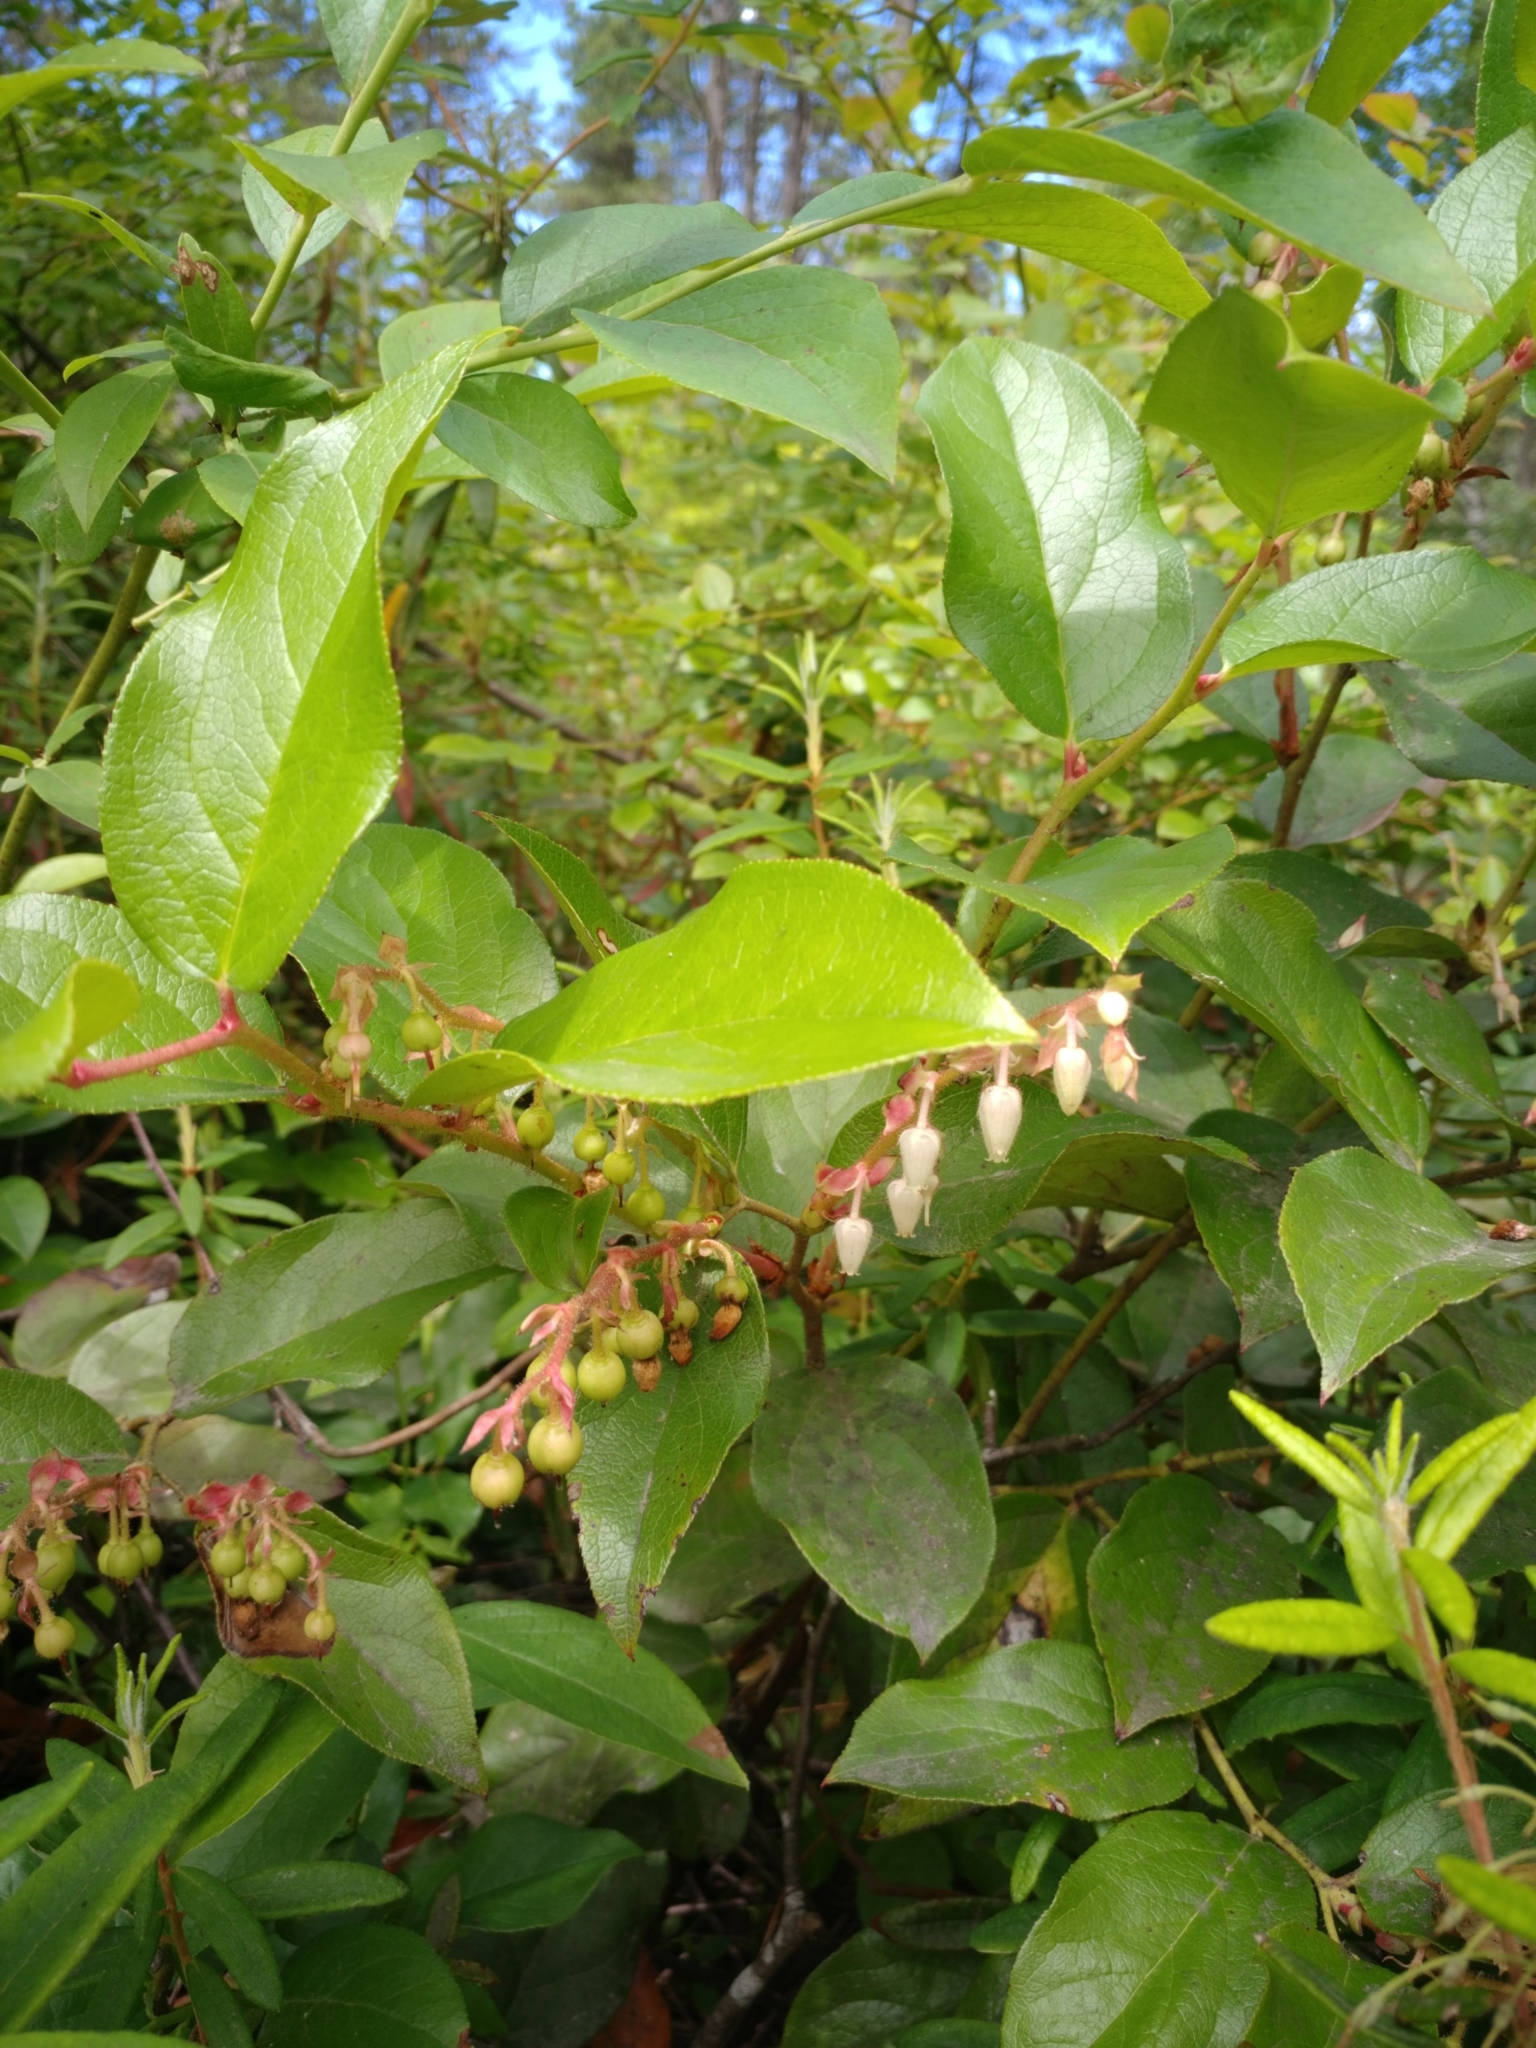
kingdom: Plantae
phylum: Tracheophyta
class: Magnoliopsida
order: Ericales
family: Ericaceae
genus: Gaultheria
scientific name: Gaultheria shallon
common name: Shallon
